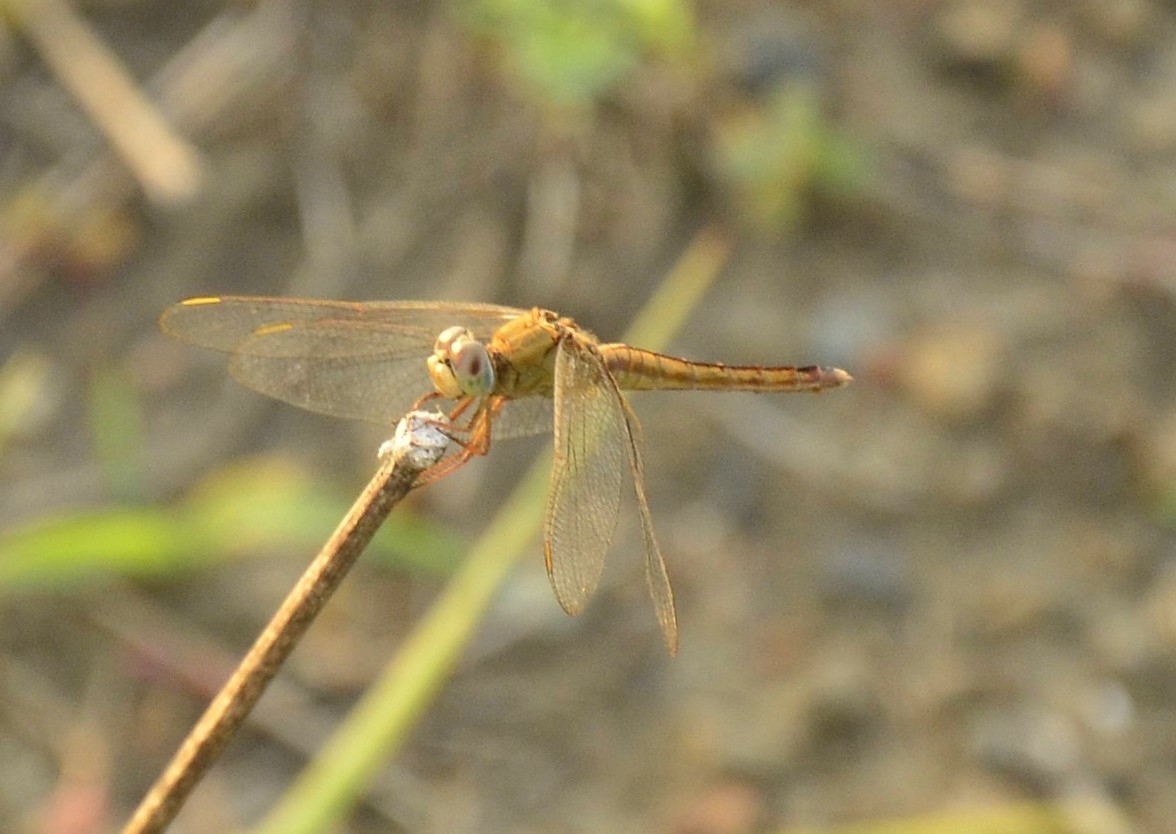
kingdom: Animalia
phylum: Arthropoda
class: Insecta
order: Odonata
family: Libellulidae
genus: Crocothemis
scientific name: Crocothemis servilia
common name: Scarlet skimmer
